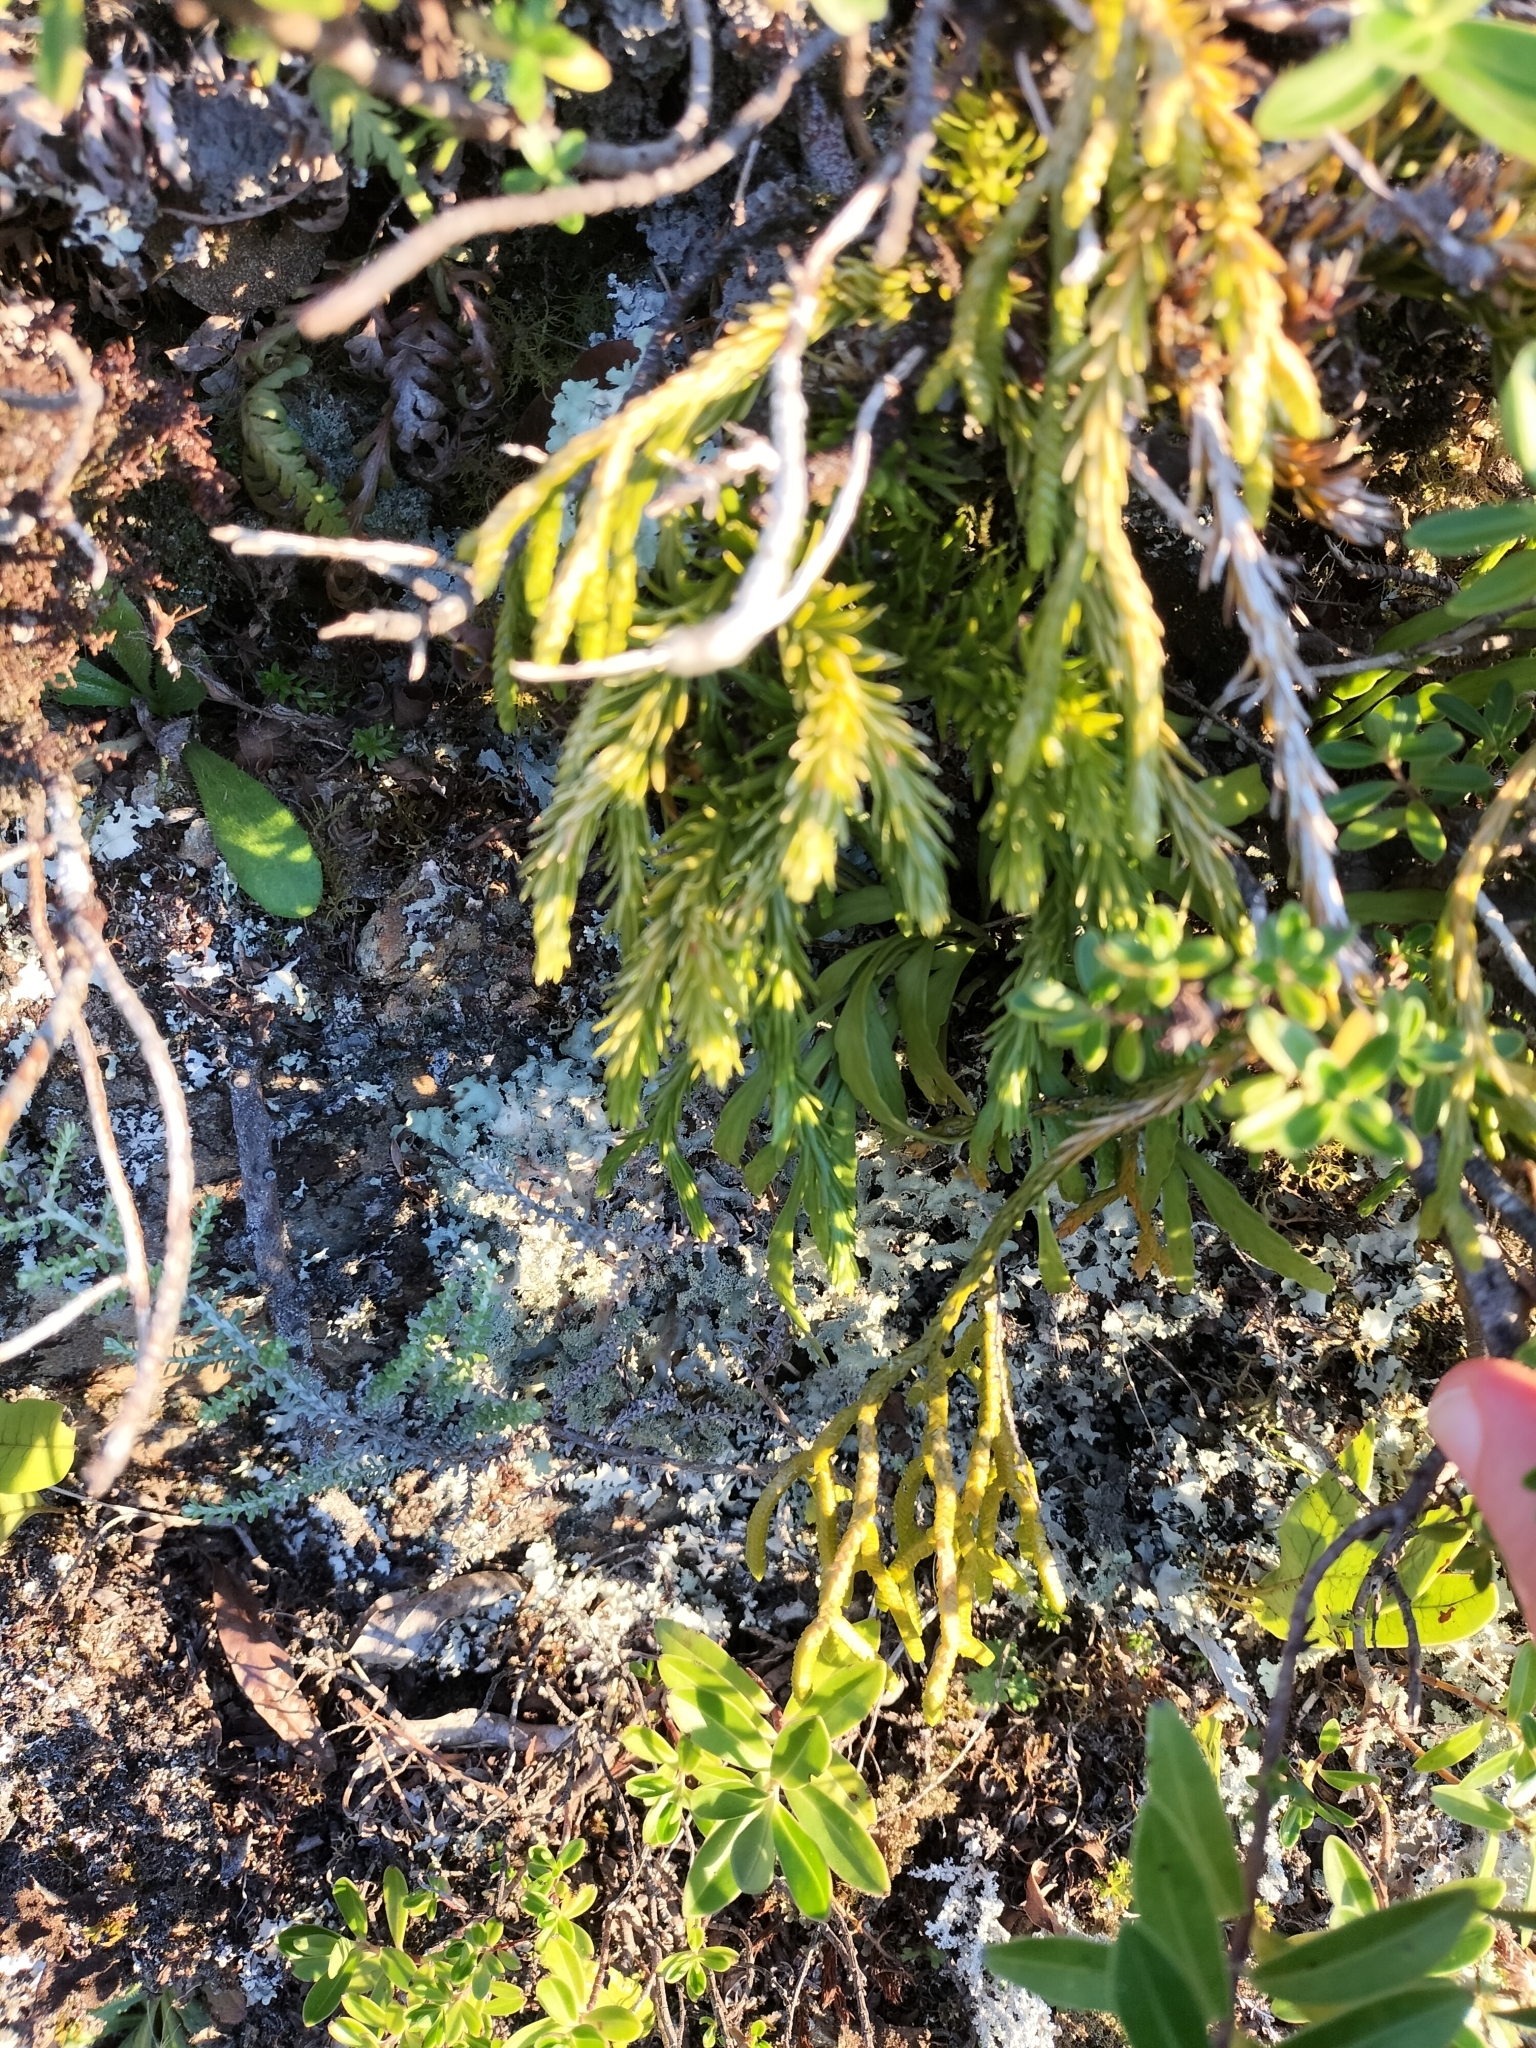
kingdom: Plantae
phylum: Tracheophyta
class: Lycopodiopsida
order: Lycopodiales
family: Lycopodiaceae
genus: Phlegmariurus
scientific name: Phlegmariurus billardierei
